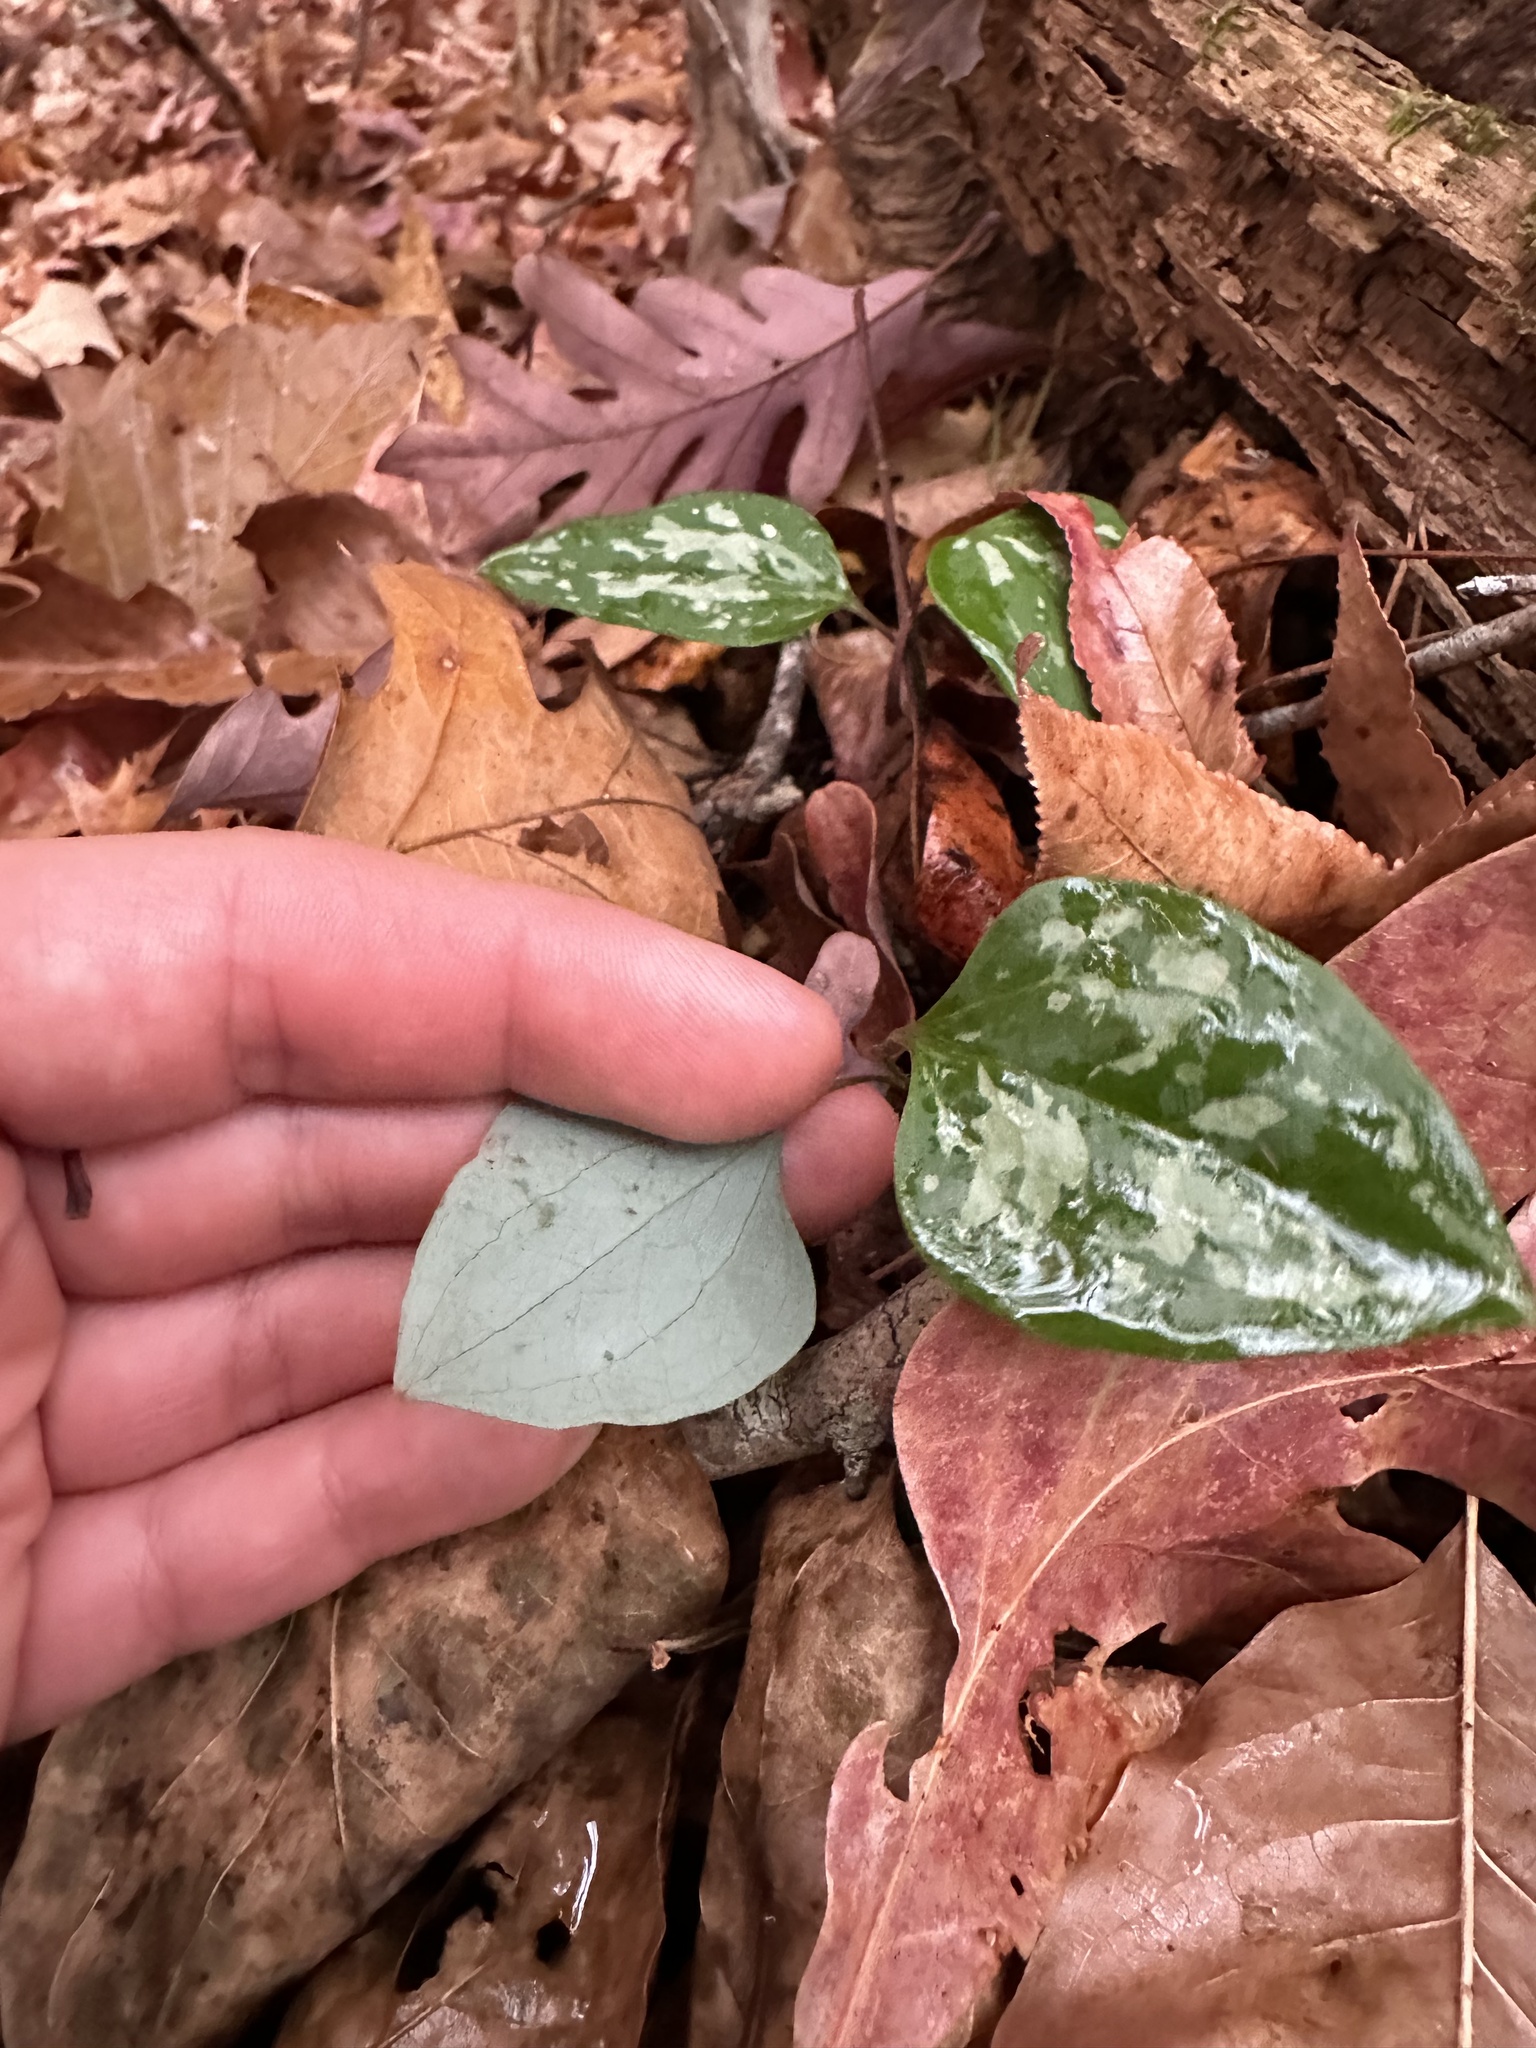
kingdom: Plantae
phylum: Tracheophyta
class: Liliopsida
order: Liliales
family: Smilacaceae
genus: Smilax
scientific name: Smilax glauca
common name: Cat greenbrier
